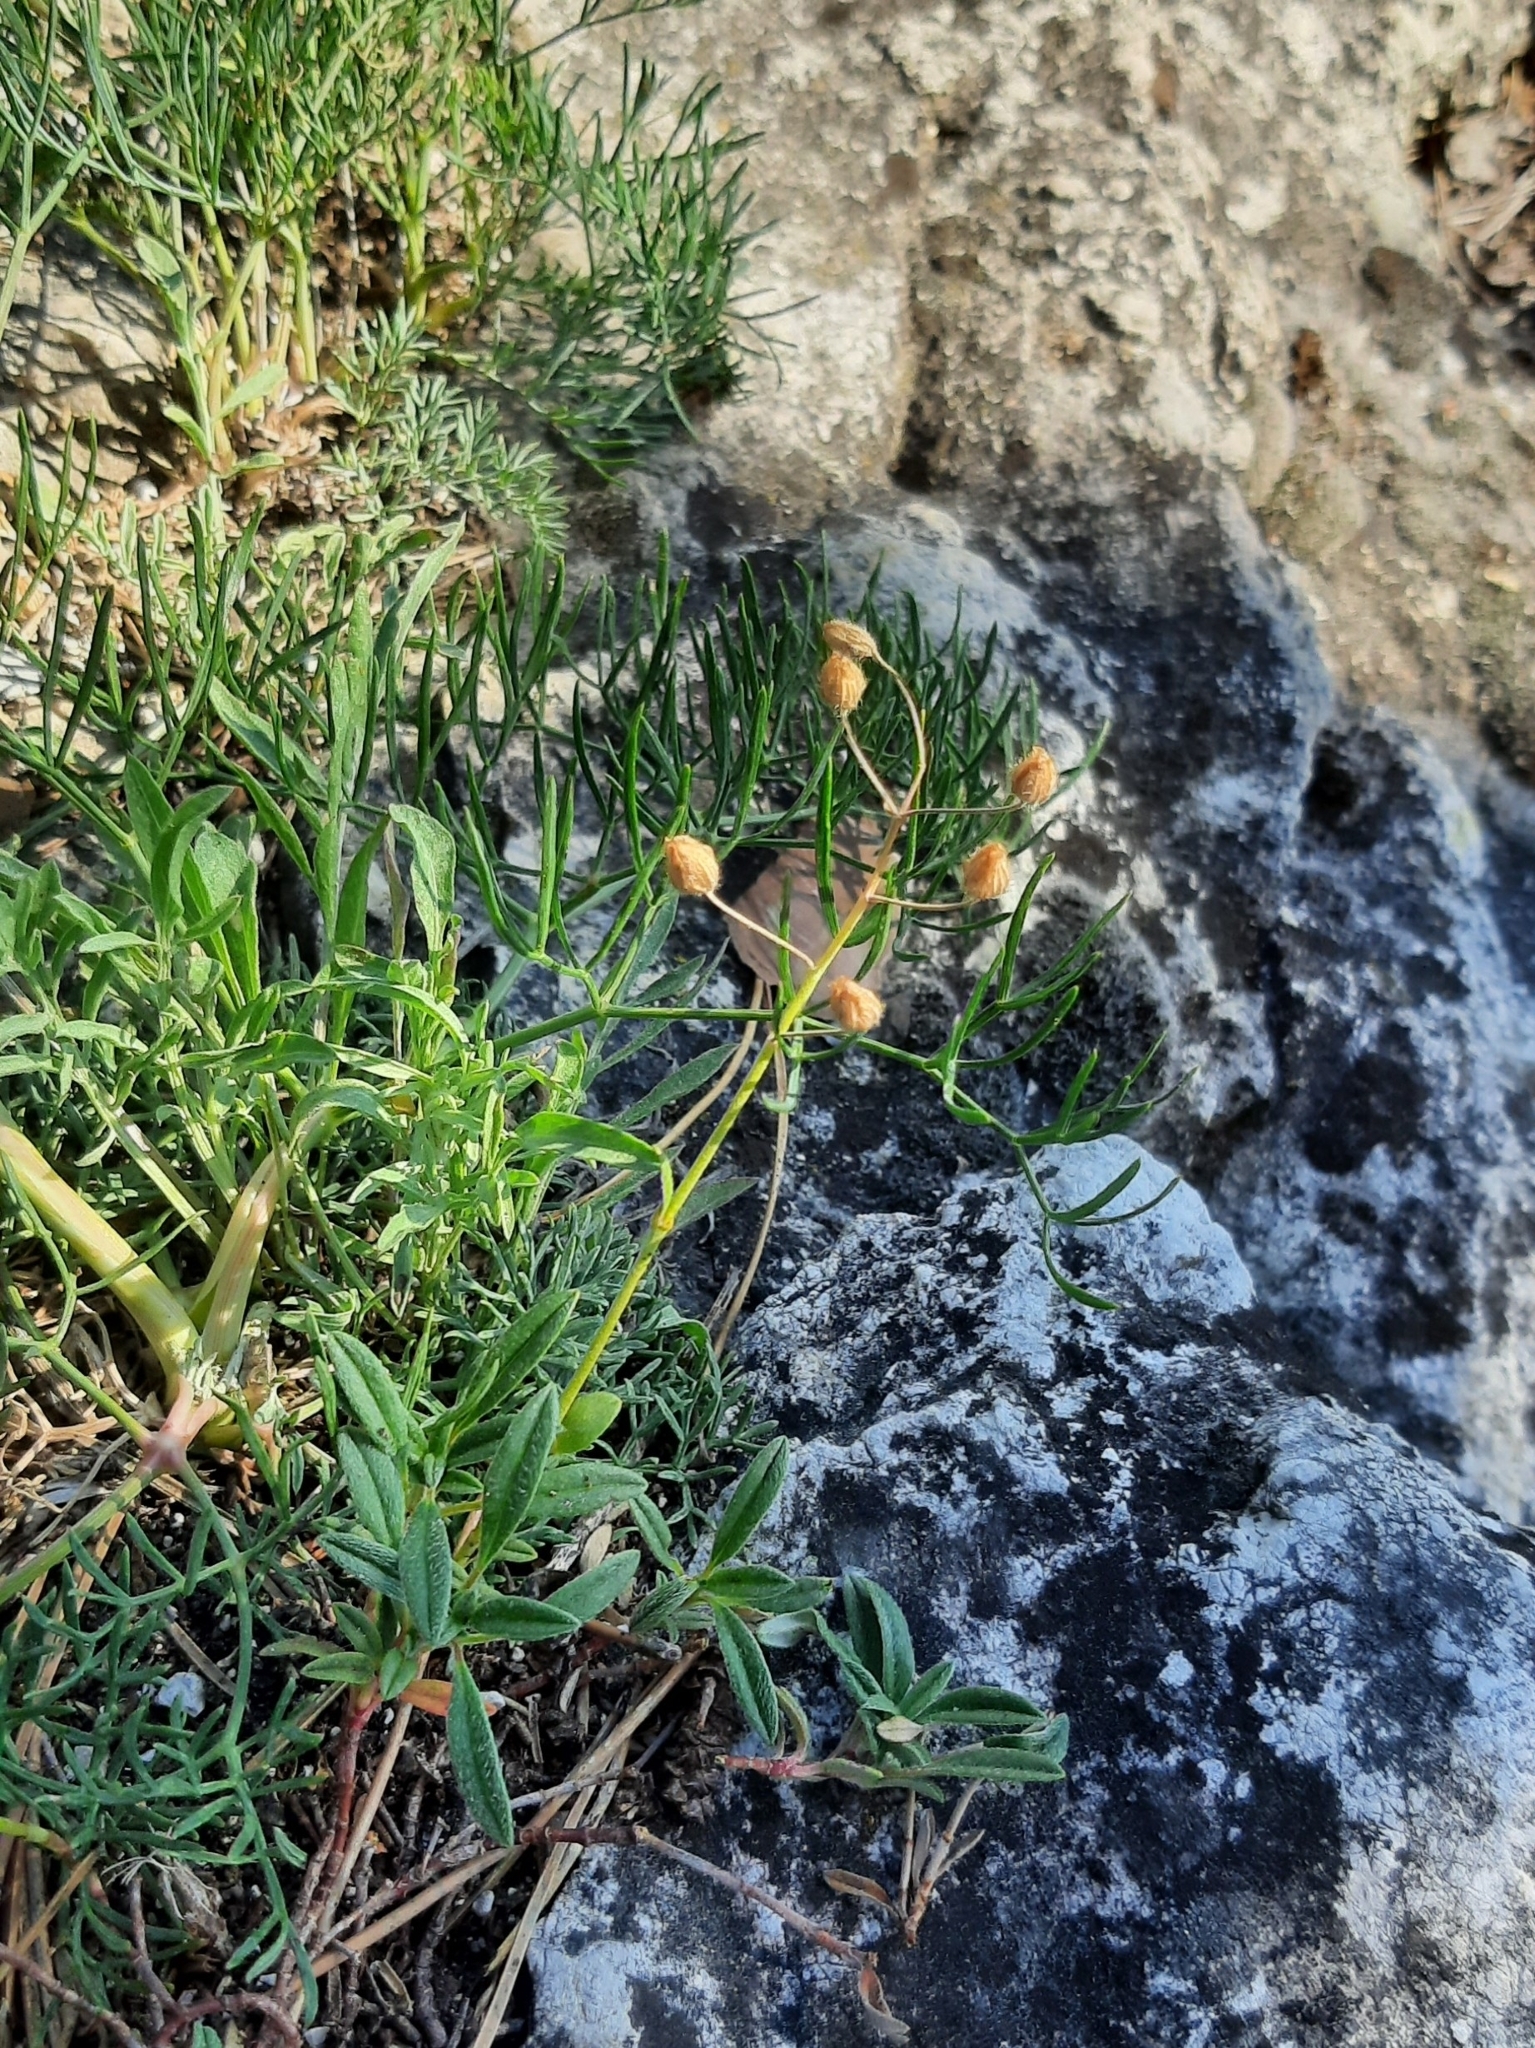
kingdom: Plantae
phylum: Tracheophyta
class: Magnoliopsida
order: Malvales
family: Cistaceae
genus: Helianthemum
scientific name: Helianthemum canum
